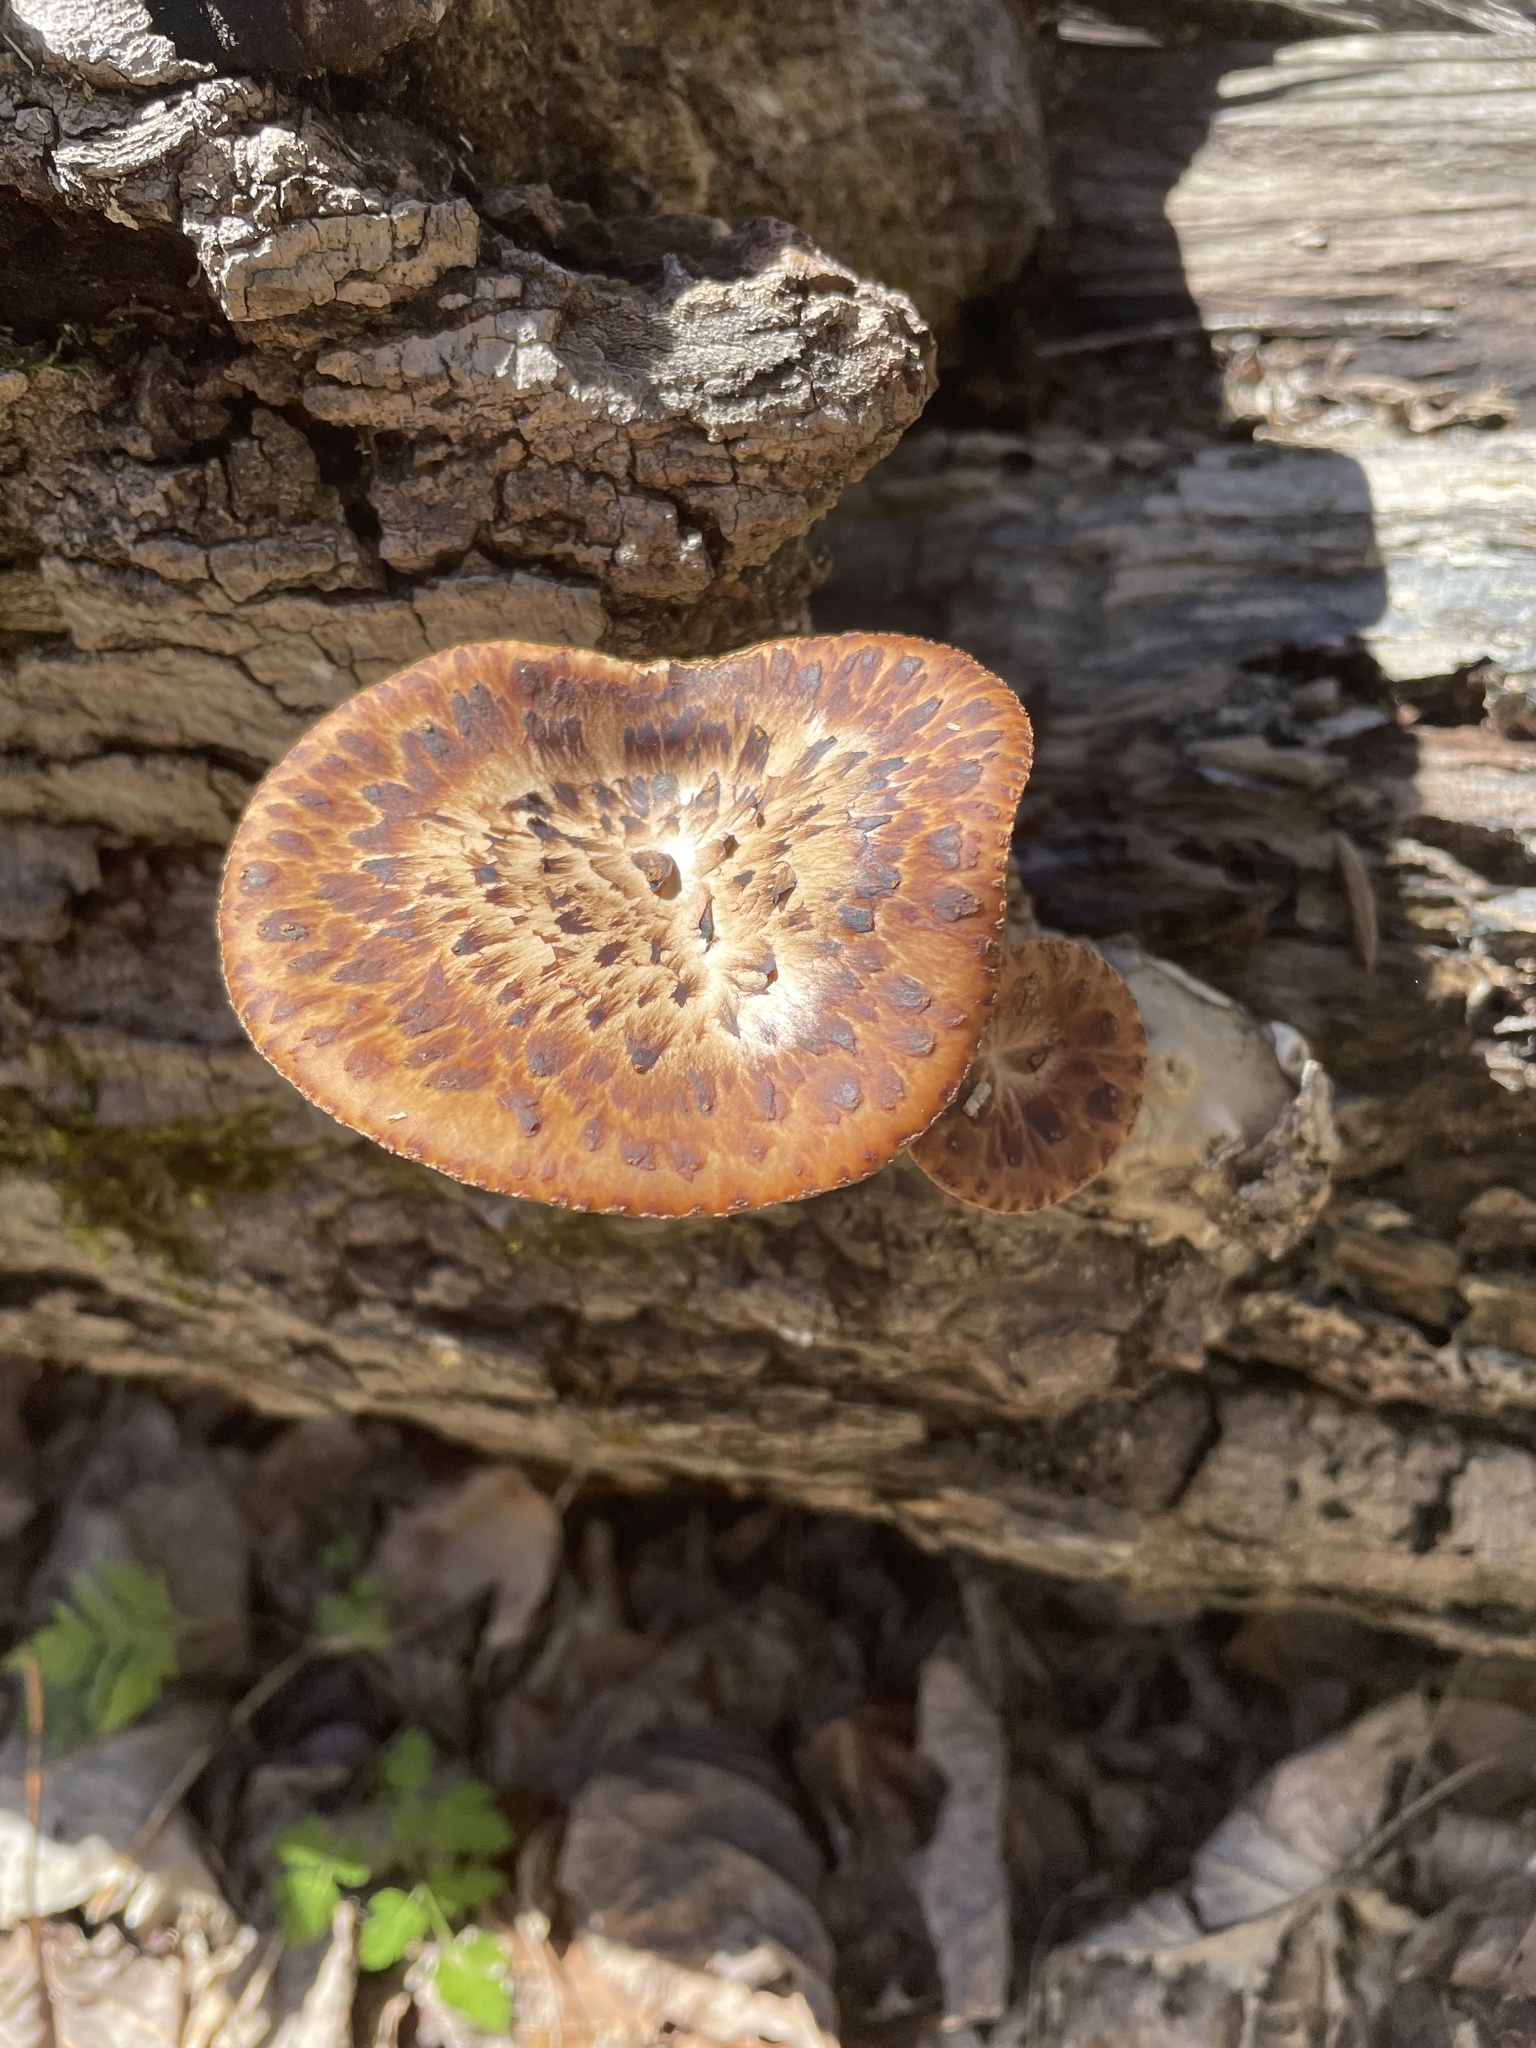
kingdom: Fungi
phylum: Basidiomycota
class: Agaricomycetes
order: Polyporales
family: Polyporaceae
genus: Cerioporus
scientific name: Cerioporus squamosus
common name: Dryad's saddle
